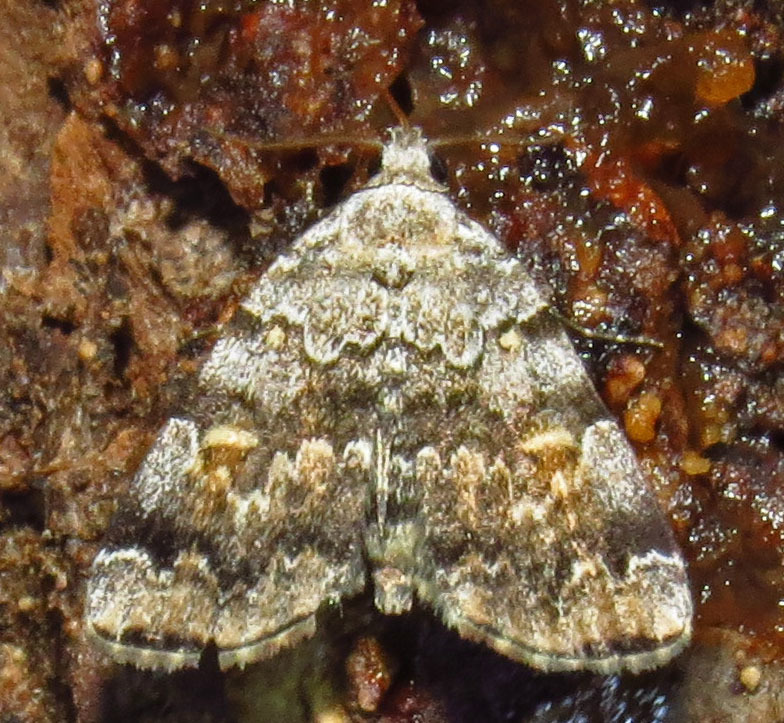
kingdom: Animalia
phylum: Arthropoda
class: Insecta
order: Lepidoptera
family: Erebidae
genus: Idia
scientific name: Idia americalis
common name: American idia moth
